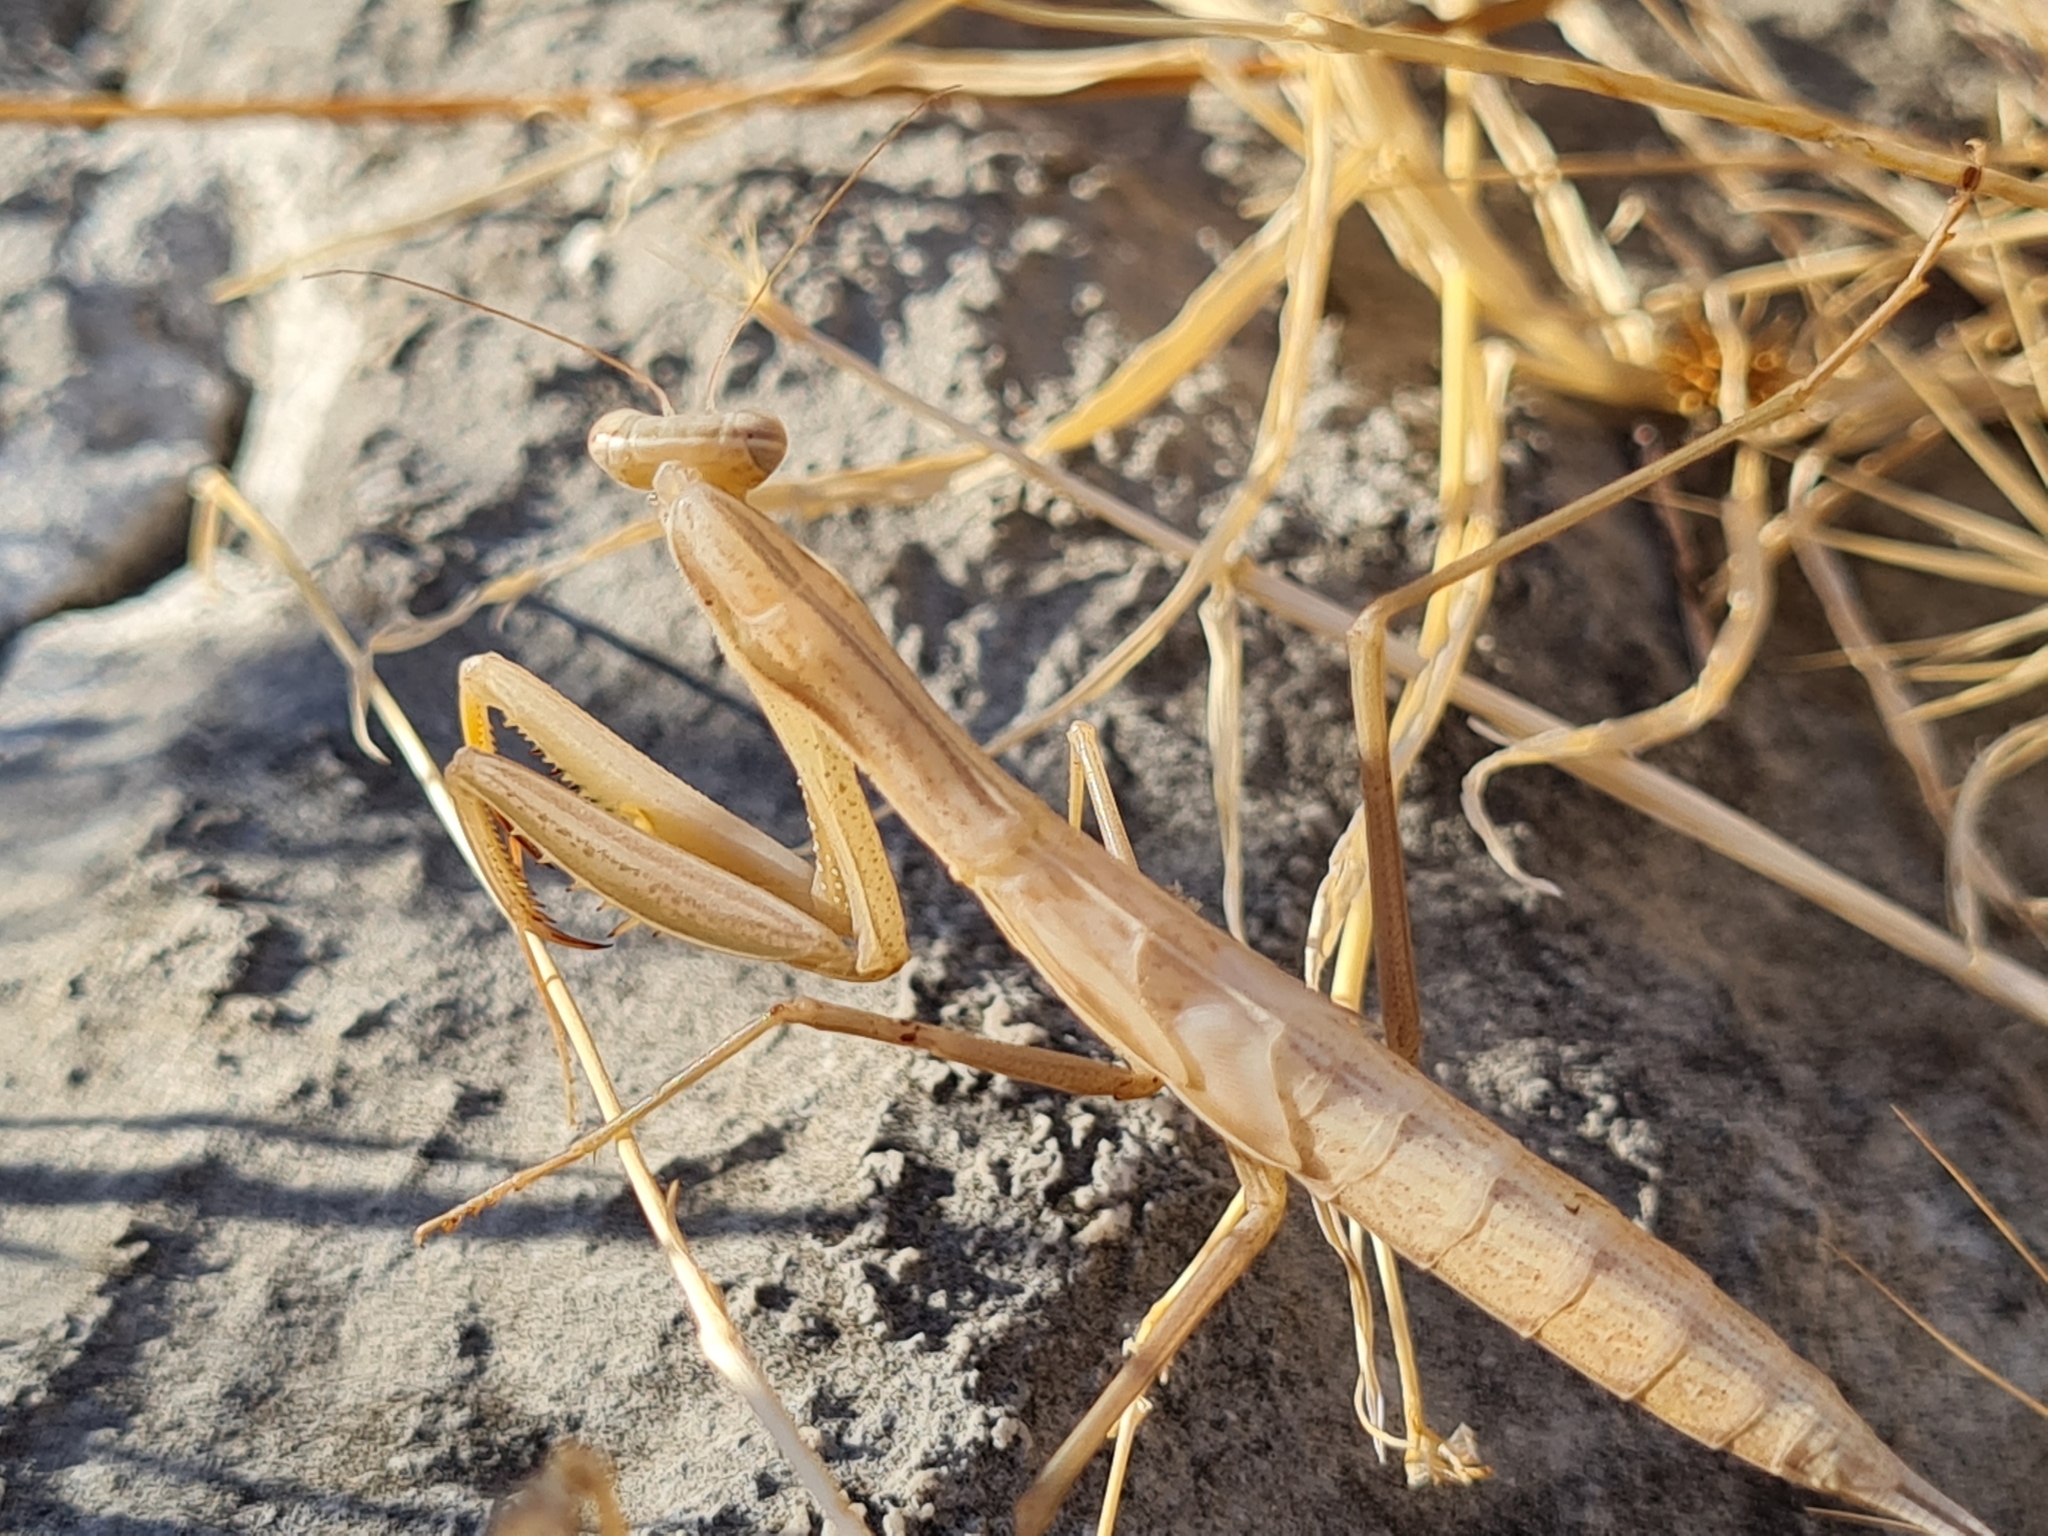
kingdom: Animalia
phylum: Arthropoda
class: Insecta
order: Mantodea
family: Mantidae
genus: Mantis
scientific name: Mantis religiosa
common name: Praying mantis
